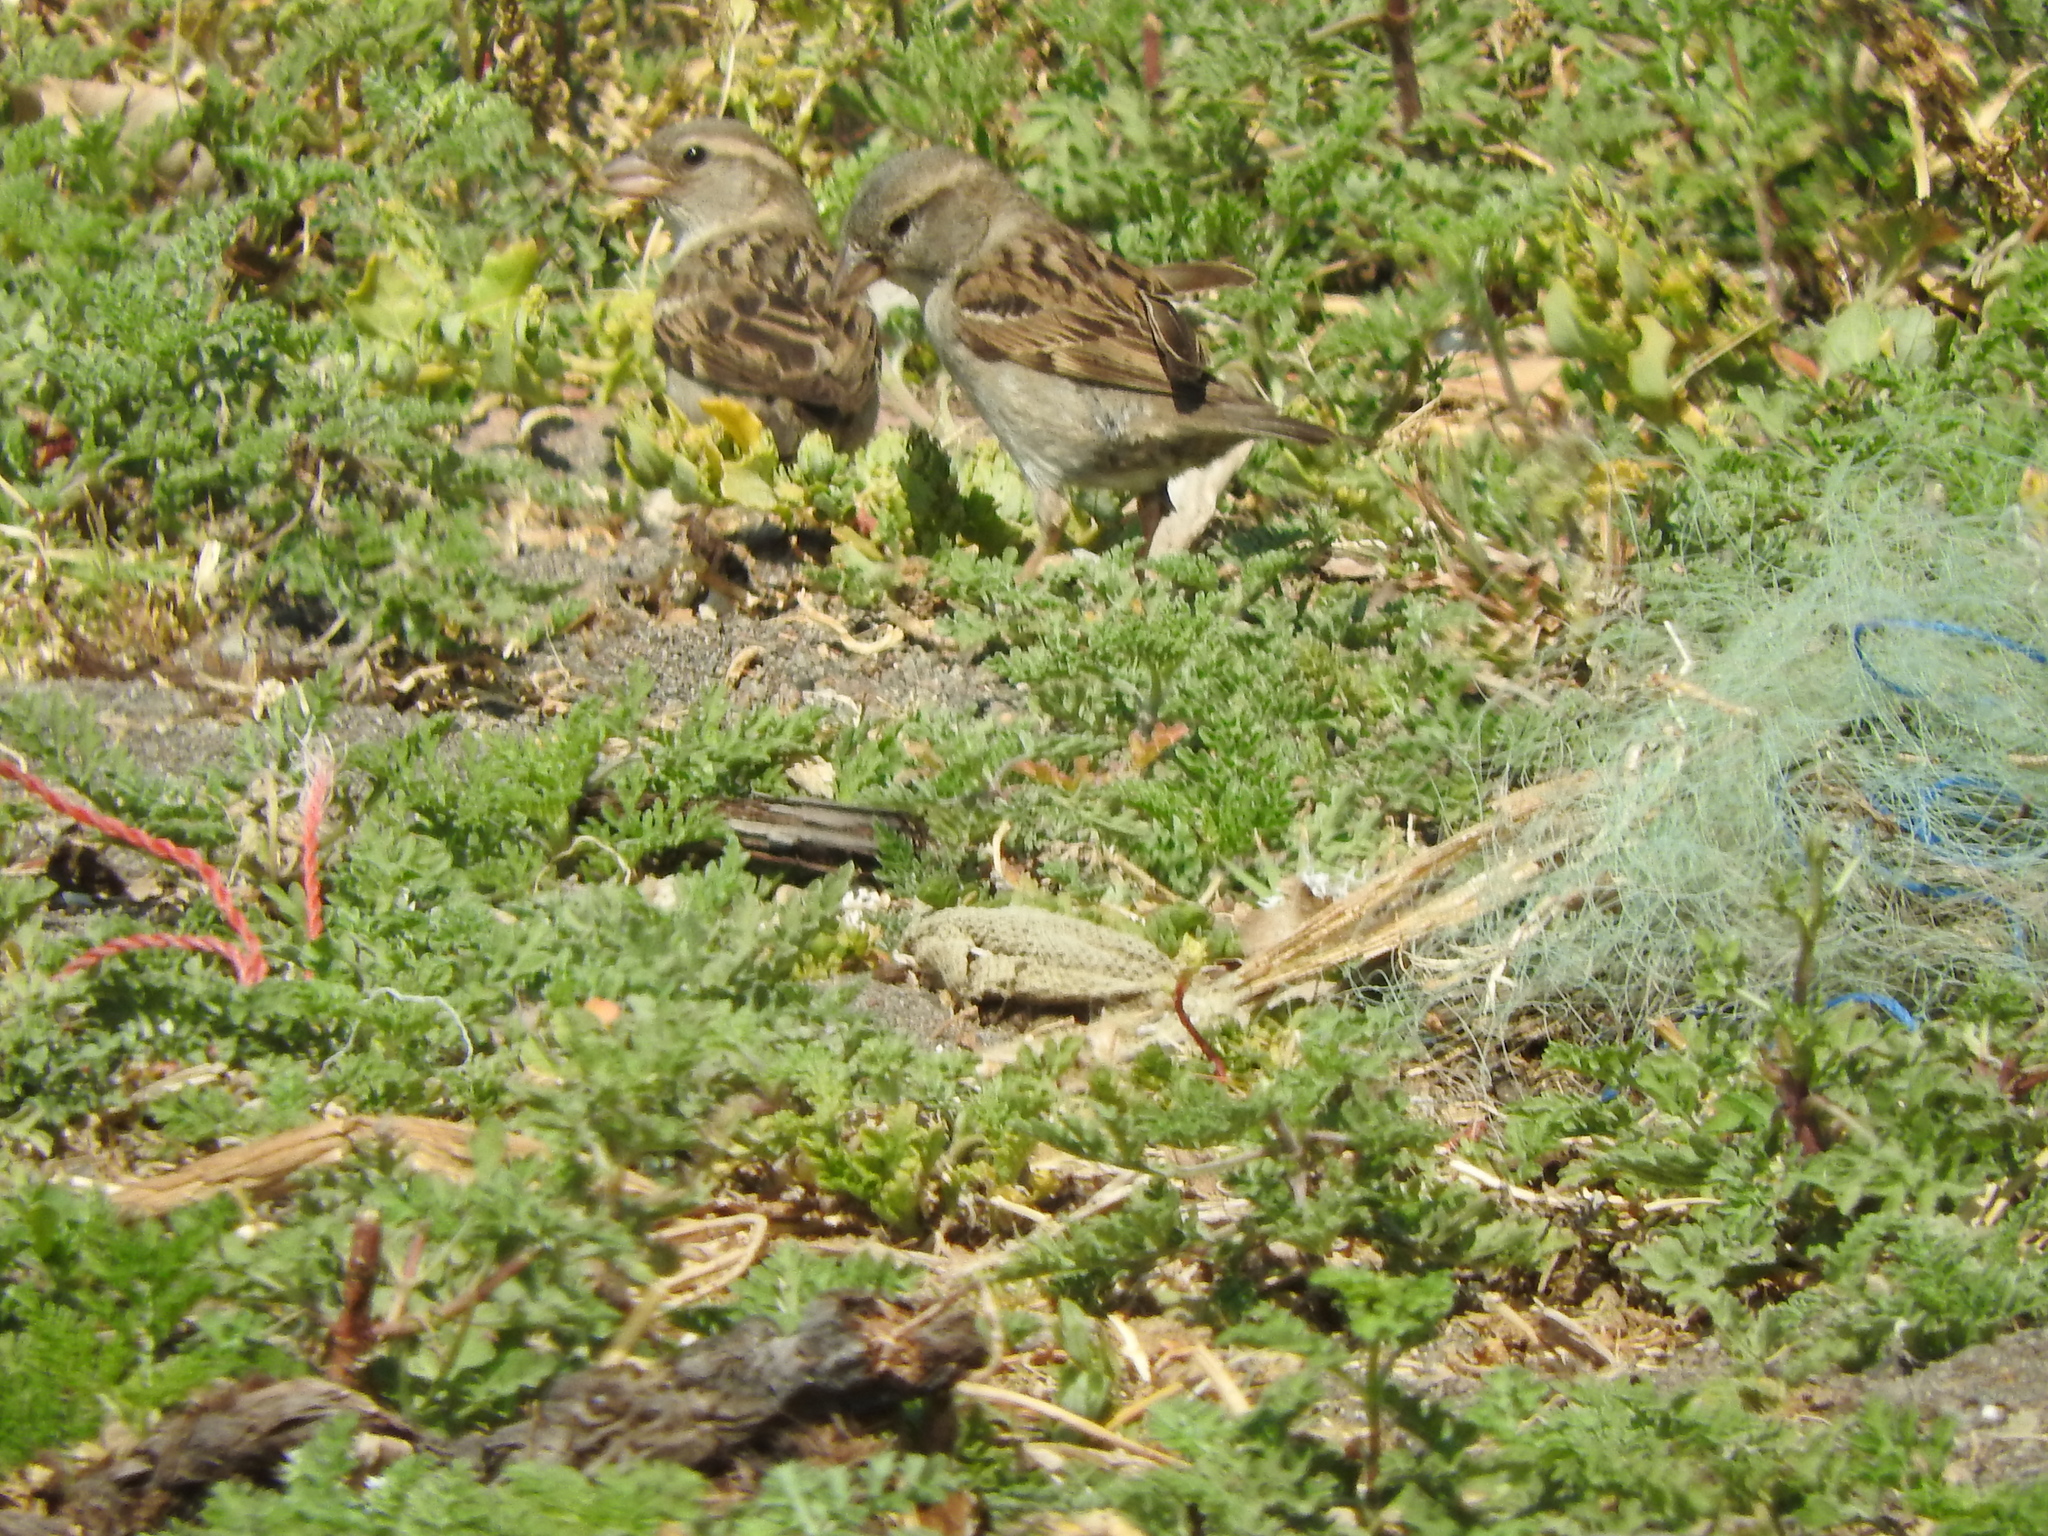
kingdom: Animalia
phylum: Chordata
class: Aves
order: Passeriformes
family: Passeridae
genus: Passer
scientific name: Passer domesticus
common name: House sparrow
